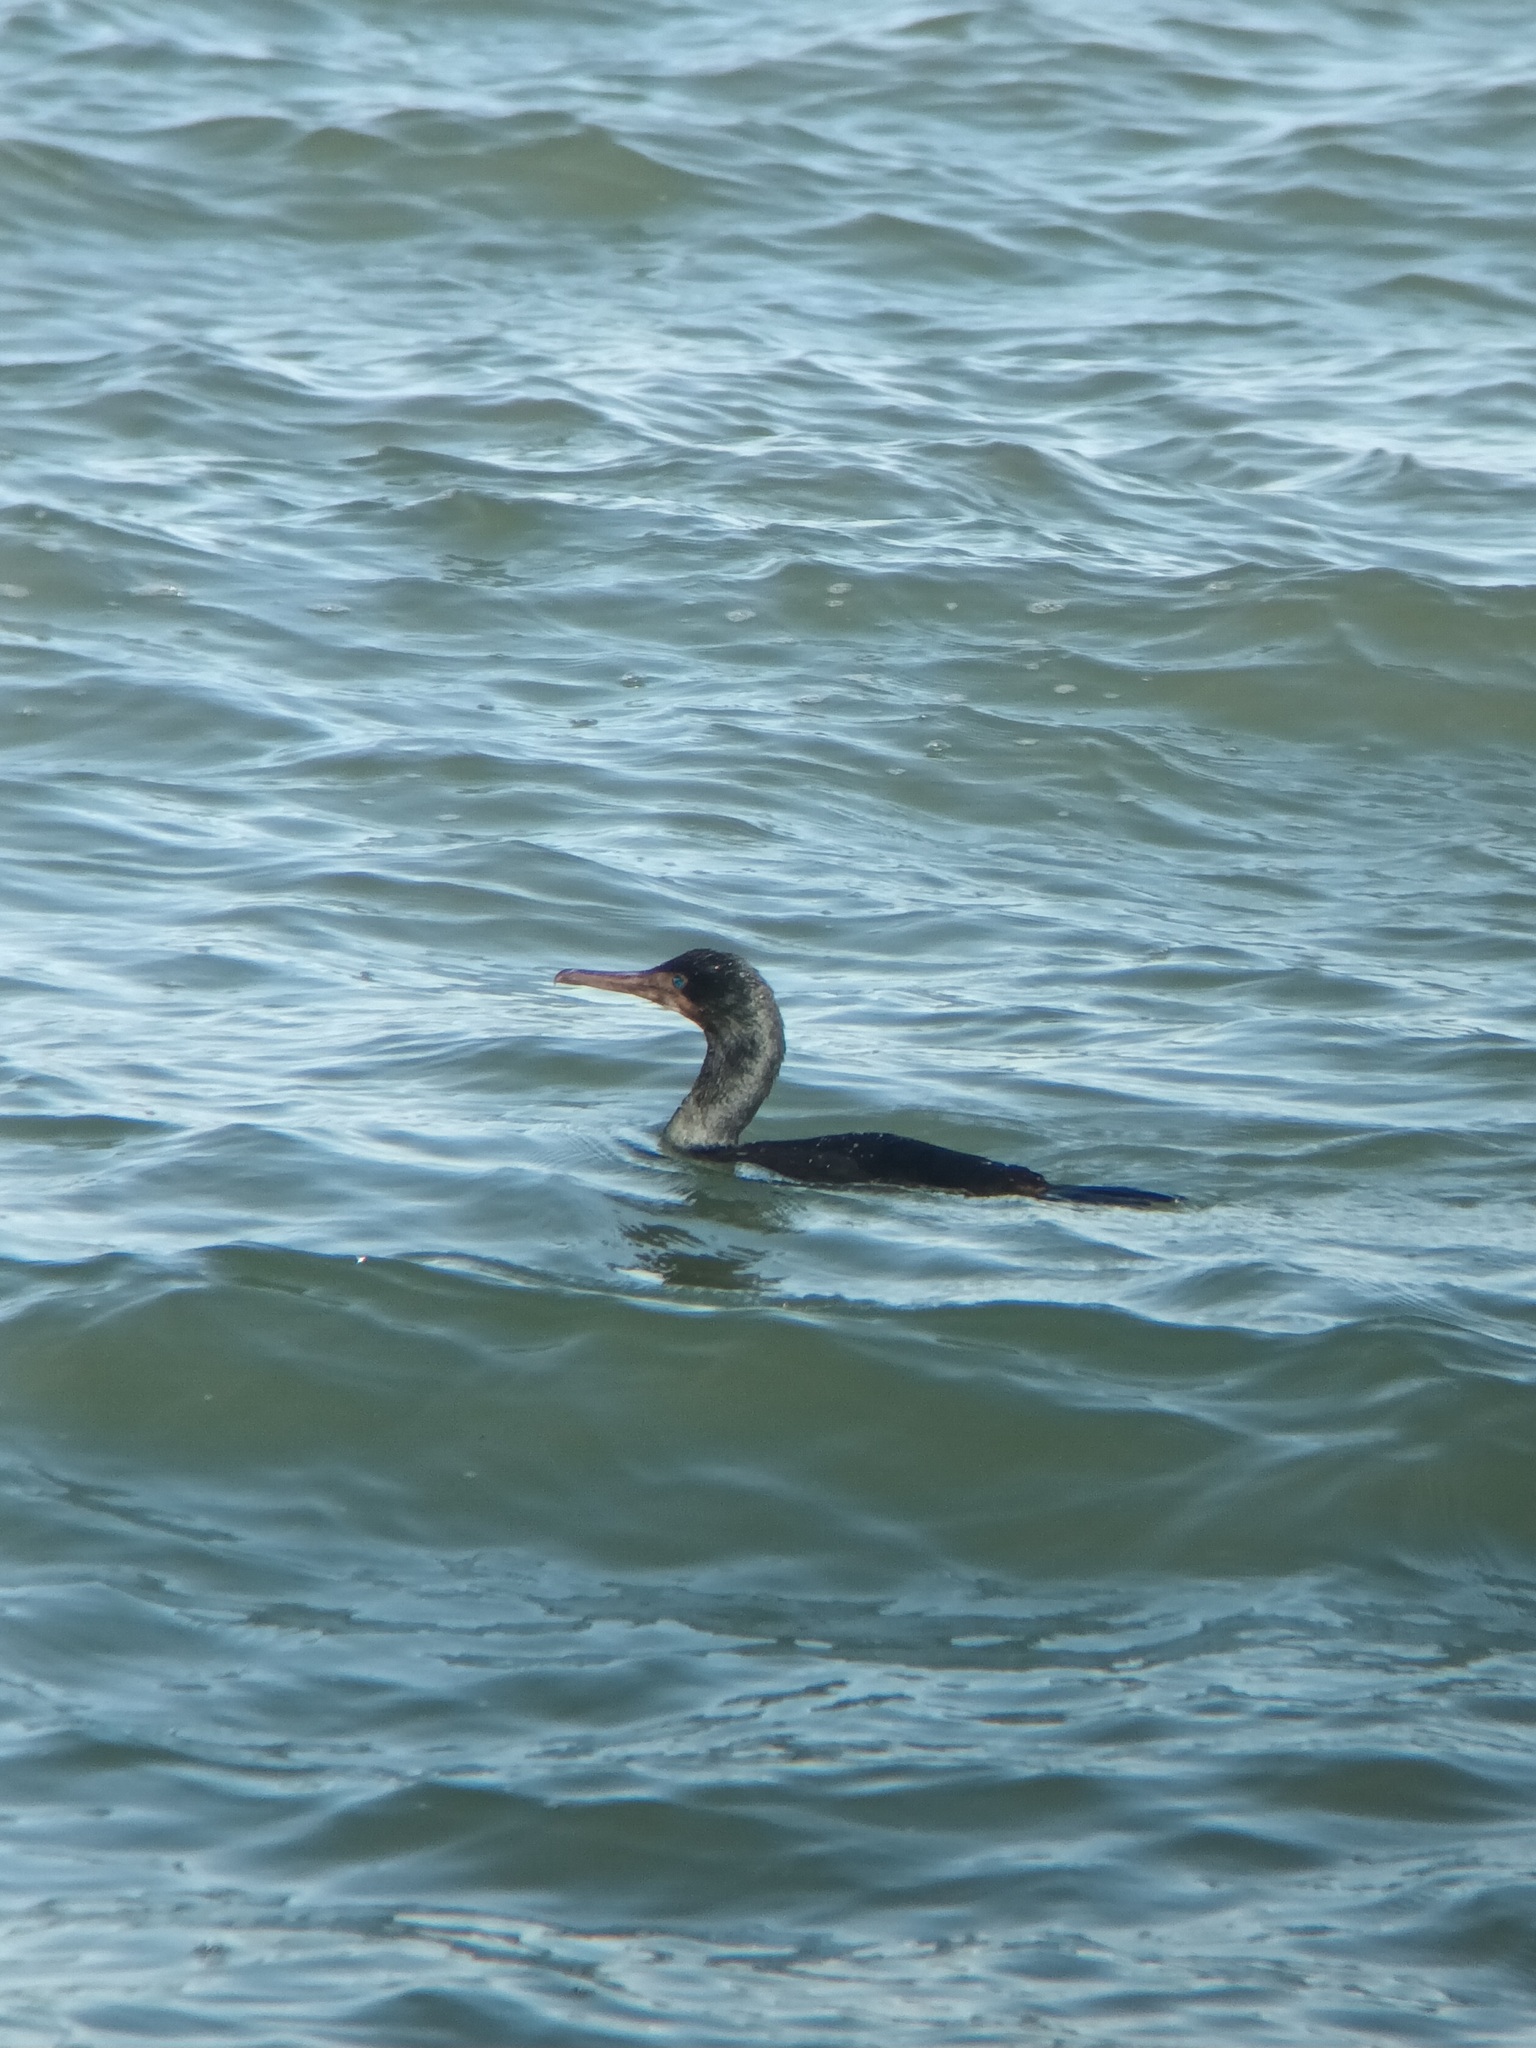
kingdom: Animalia
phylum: Chordata
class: Aves
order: Suliformes
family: Phalacrocoracidae
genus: Urile
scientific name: Urile penicillatus
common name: Brandt's cormorant
